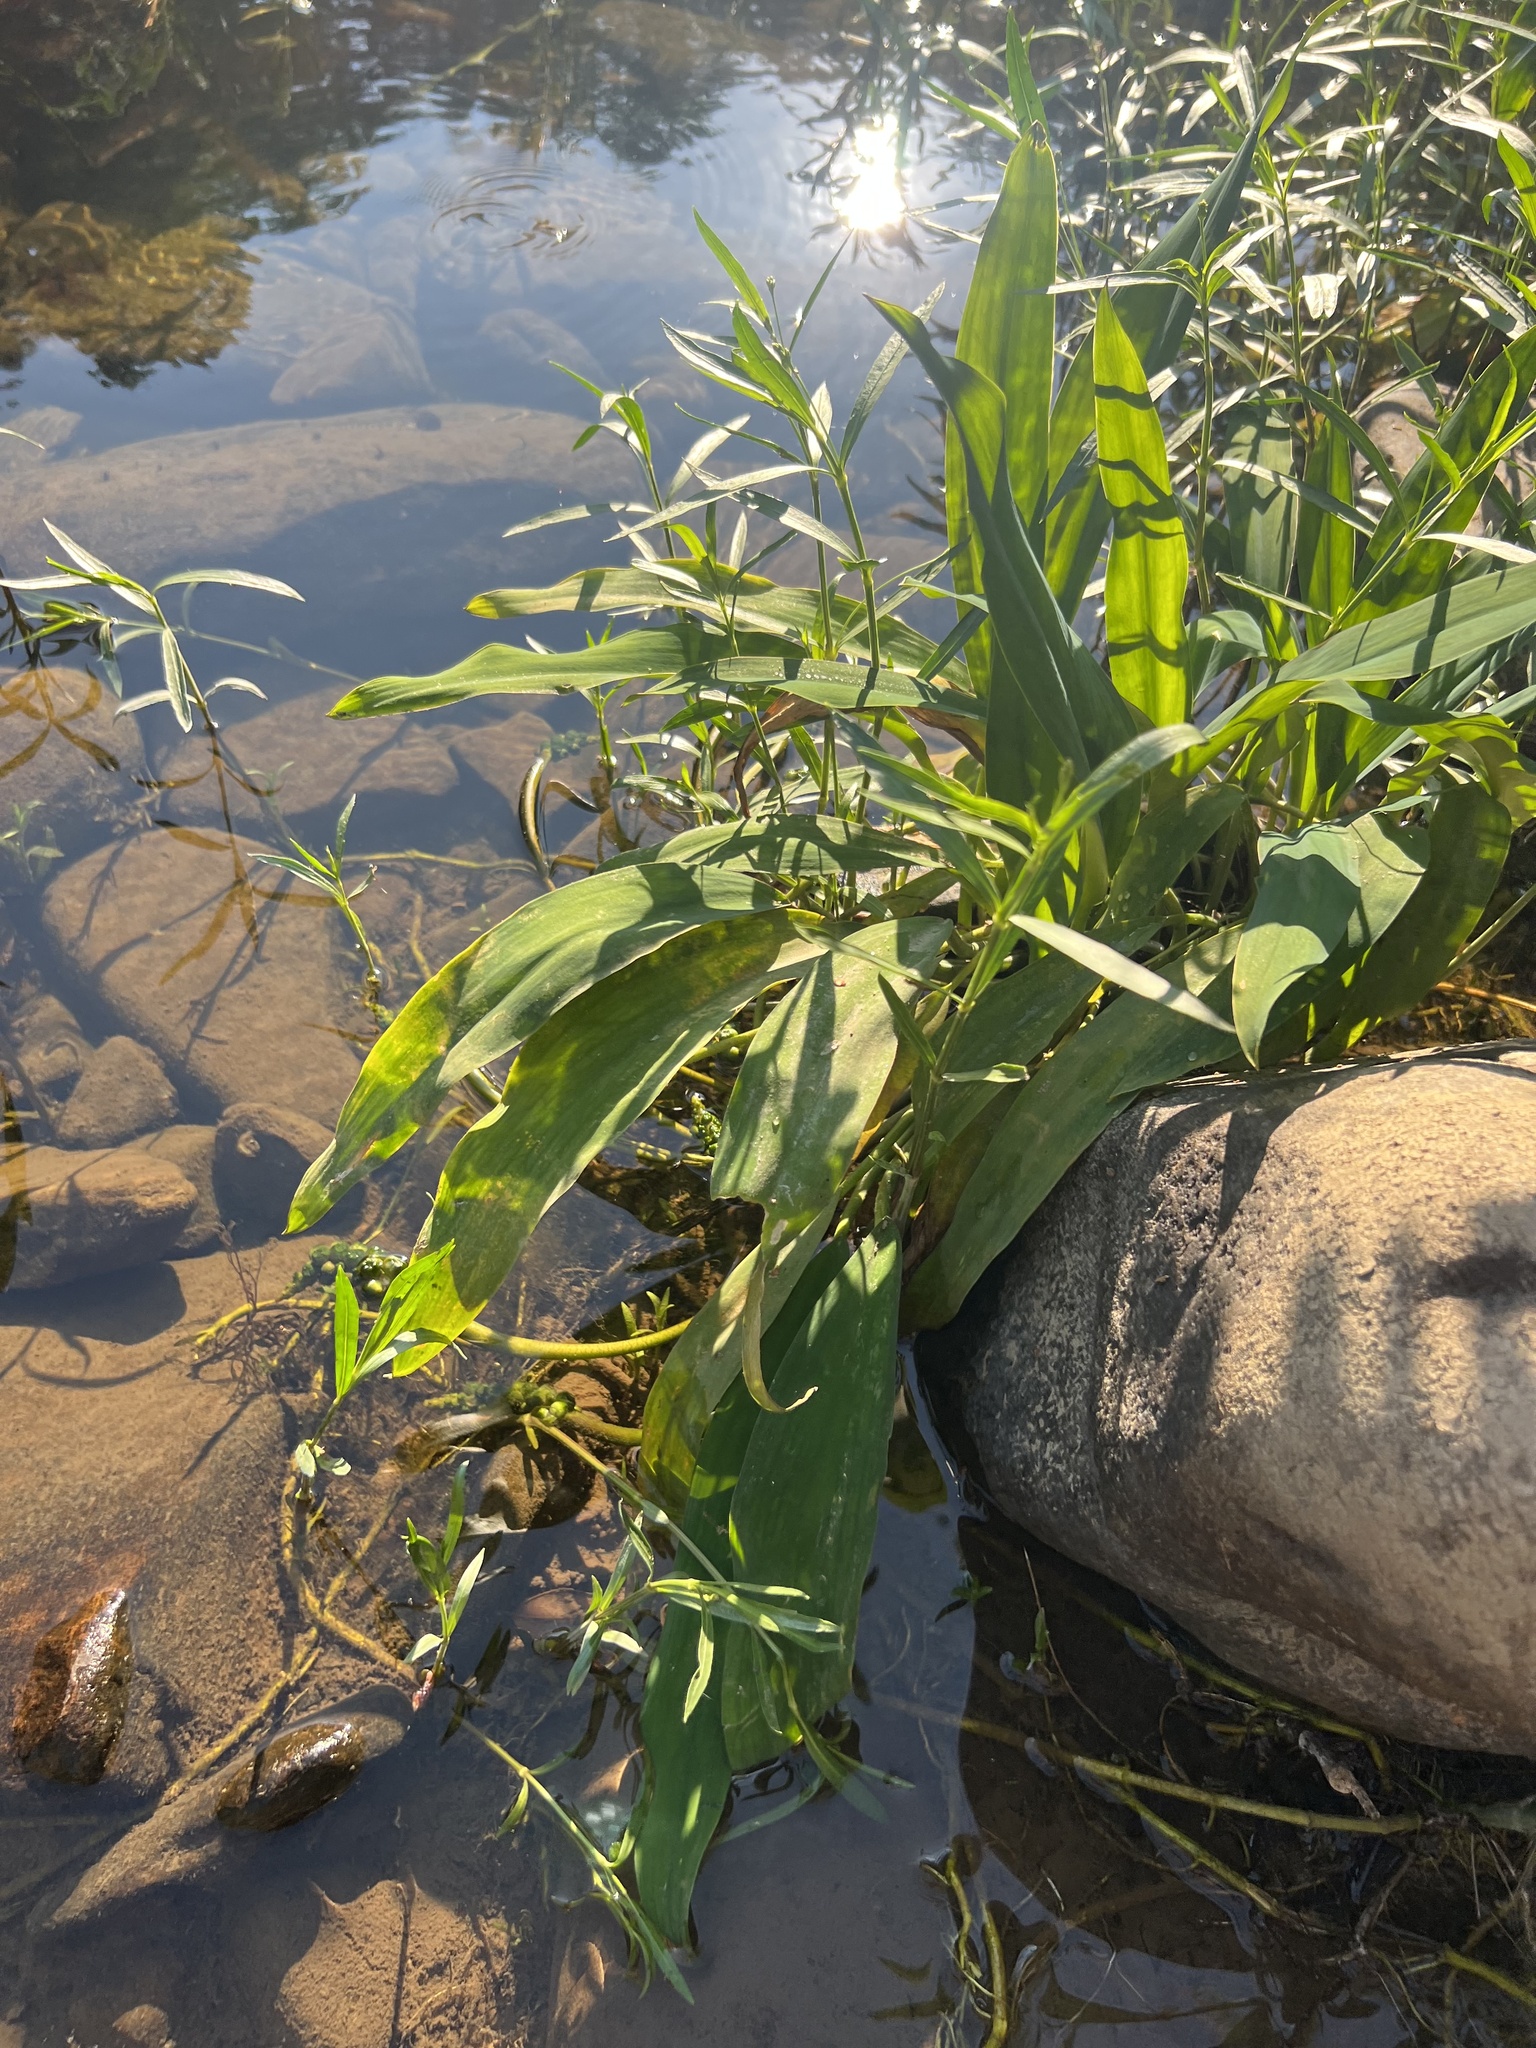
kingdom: Plantae
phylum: Tracheophyta
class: Liliopsida
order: Alismatales
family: Araceae
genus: Orontium
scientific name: Orontium aquaticum
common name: Golden-club
